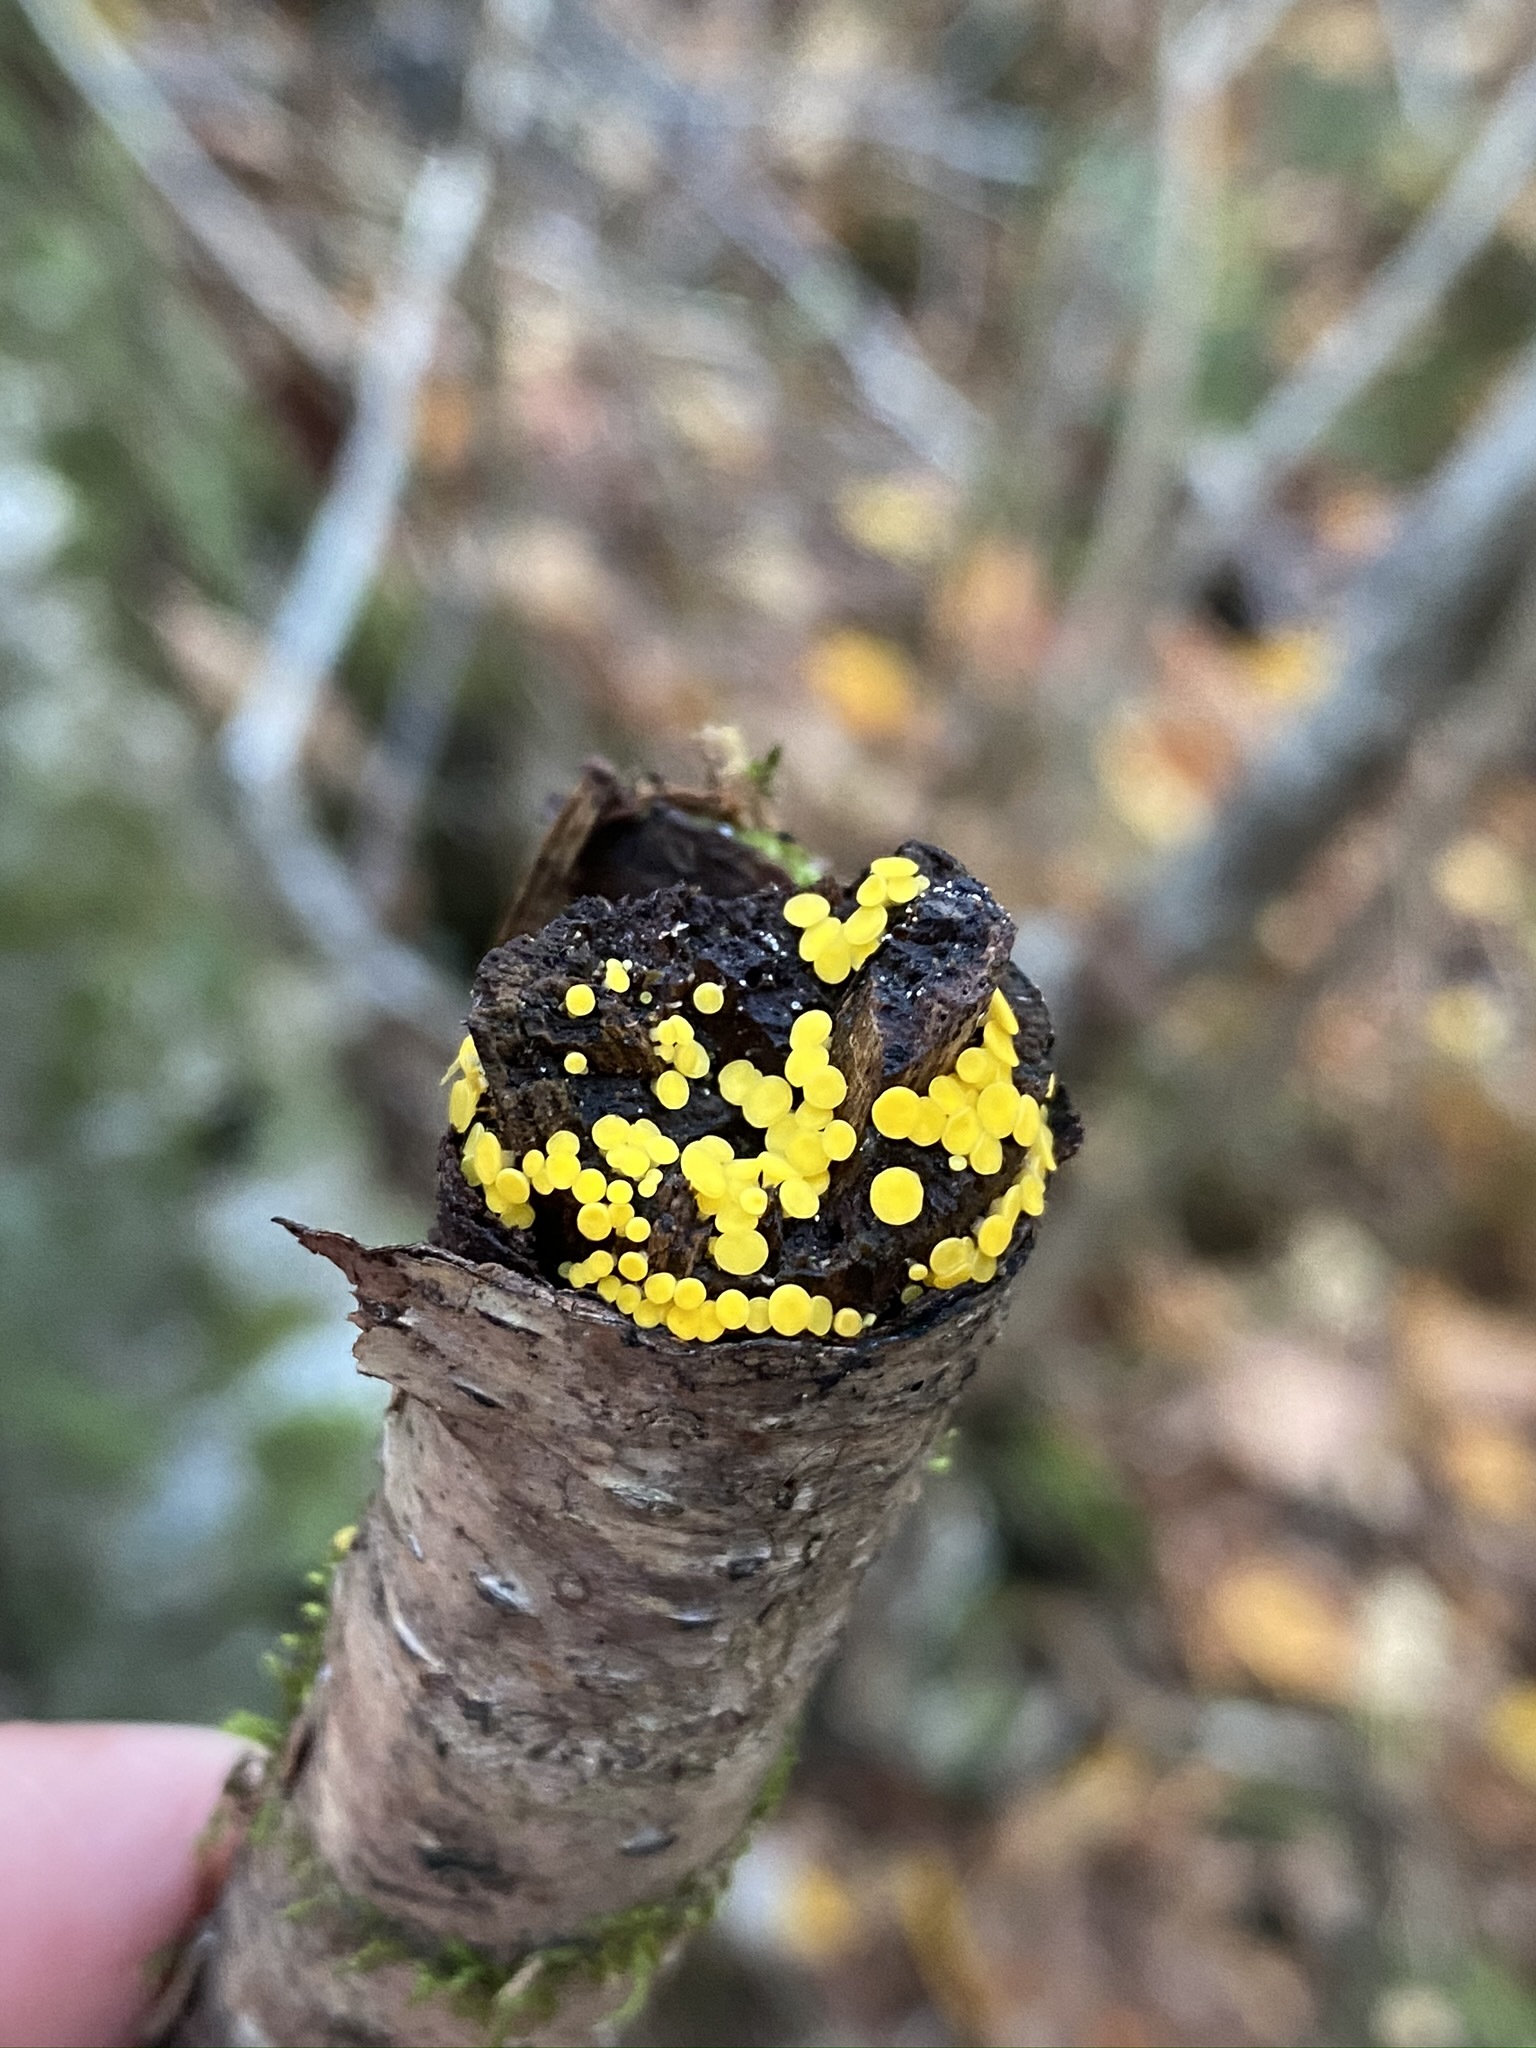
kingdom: Fungi
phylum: Ascomycota
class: Leotiomycetes
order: Helotiales
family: Pezizellaceae
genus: Calycina
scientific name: Calycina citrina
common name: Yellow fairy cups
